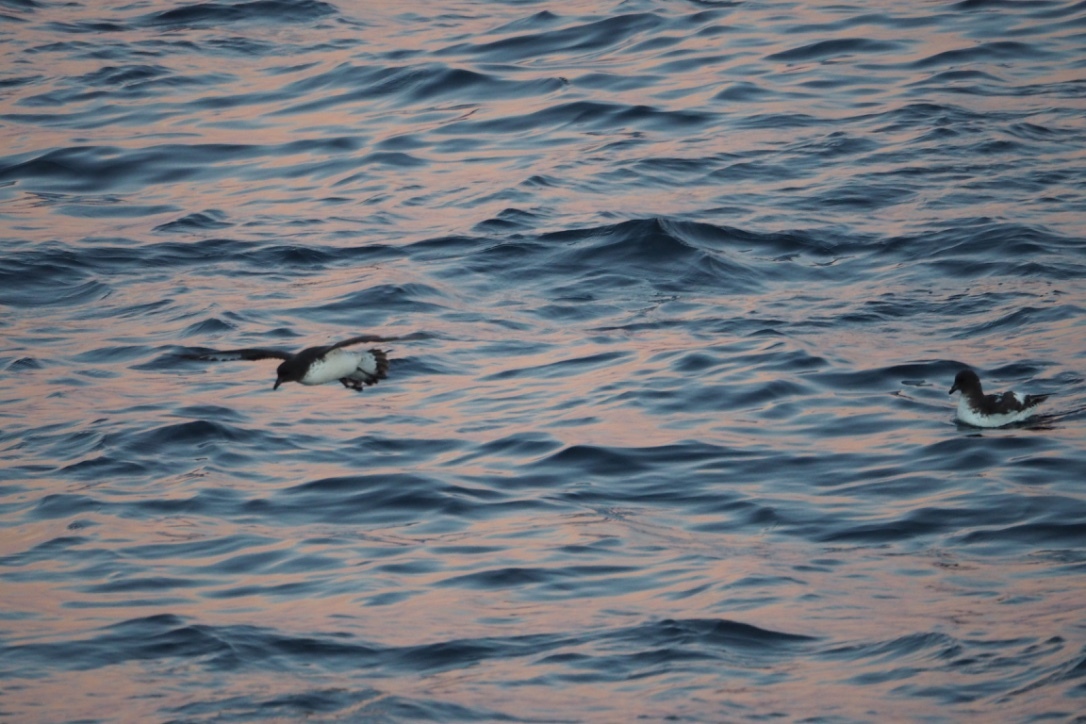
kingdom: Animalia
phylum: Chordata
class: Aves
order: Procellariiformes
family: Procellariidae
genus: Daption
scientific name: Daption capense
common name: Cape petrel
